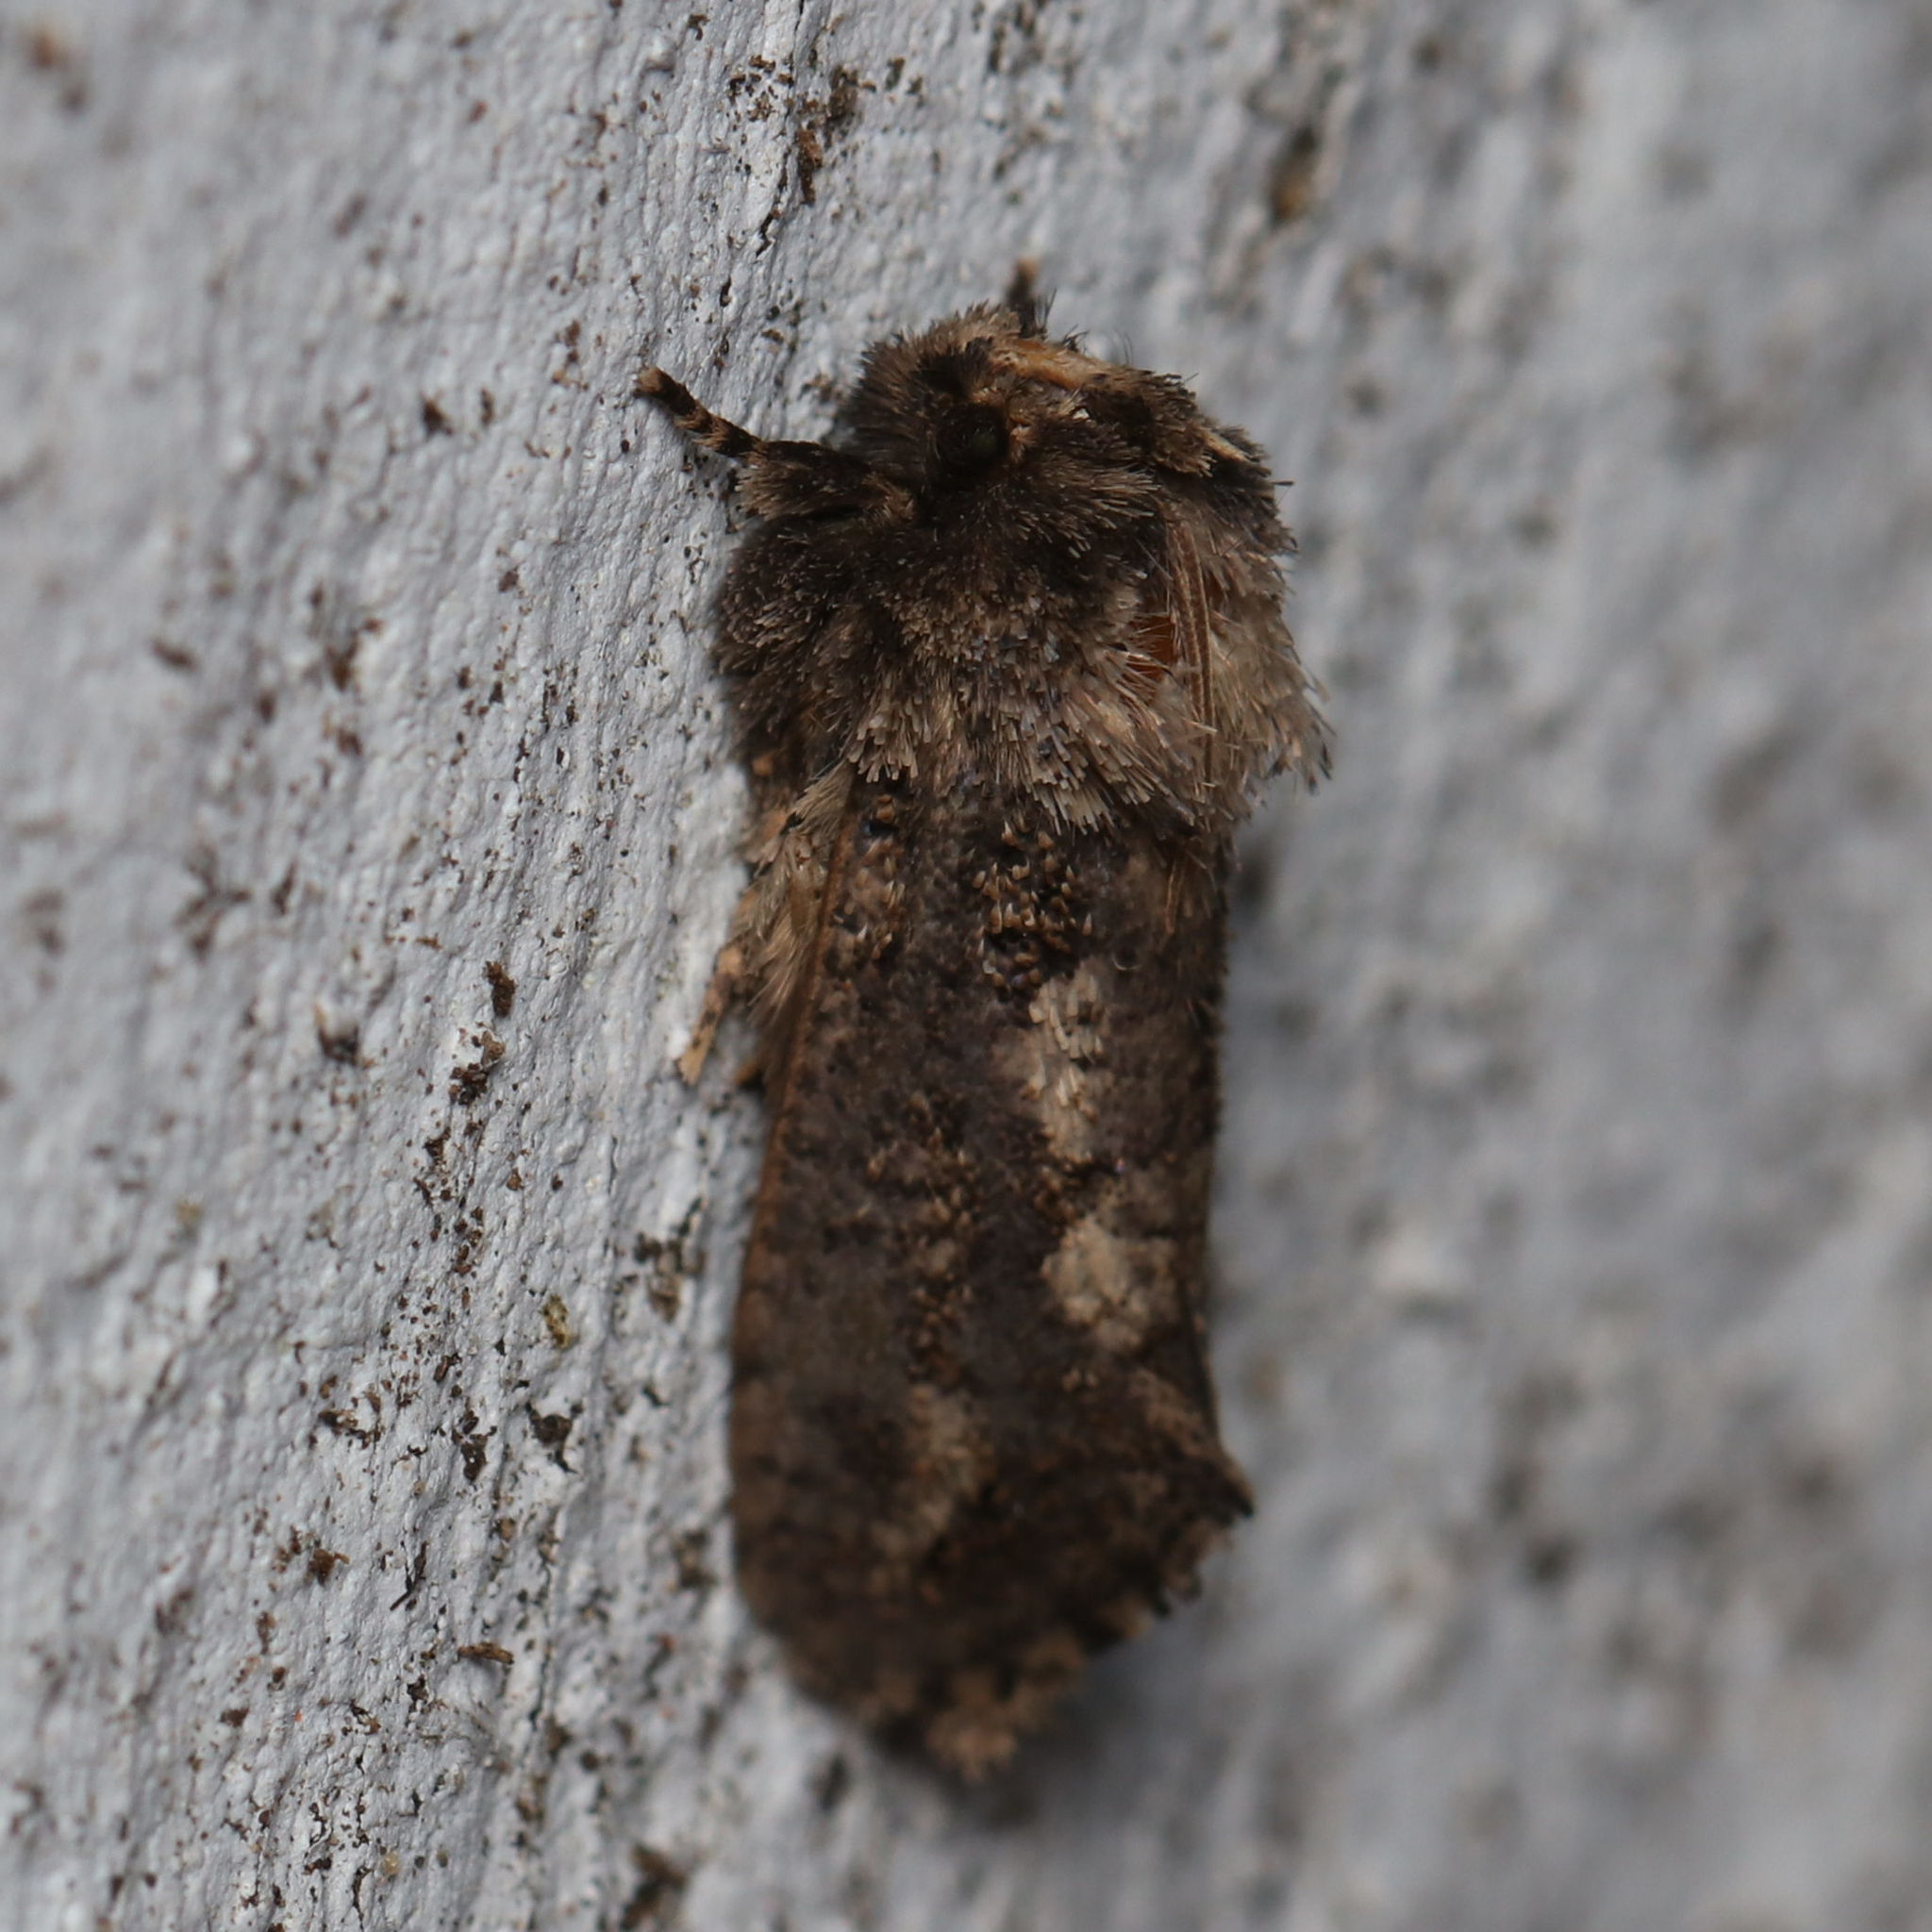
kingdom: Animalia
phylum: Arthropoda
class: Insecta
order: Lepidoptera
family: Tineidae
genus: Acrolophus
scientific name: Acrolophus arcanella
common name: Arcane grass tubeworm moth
